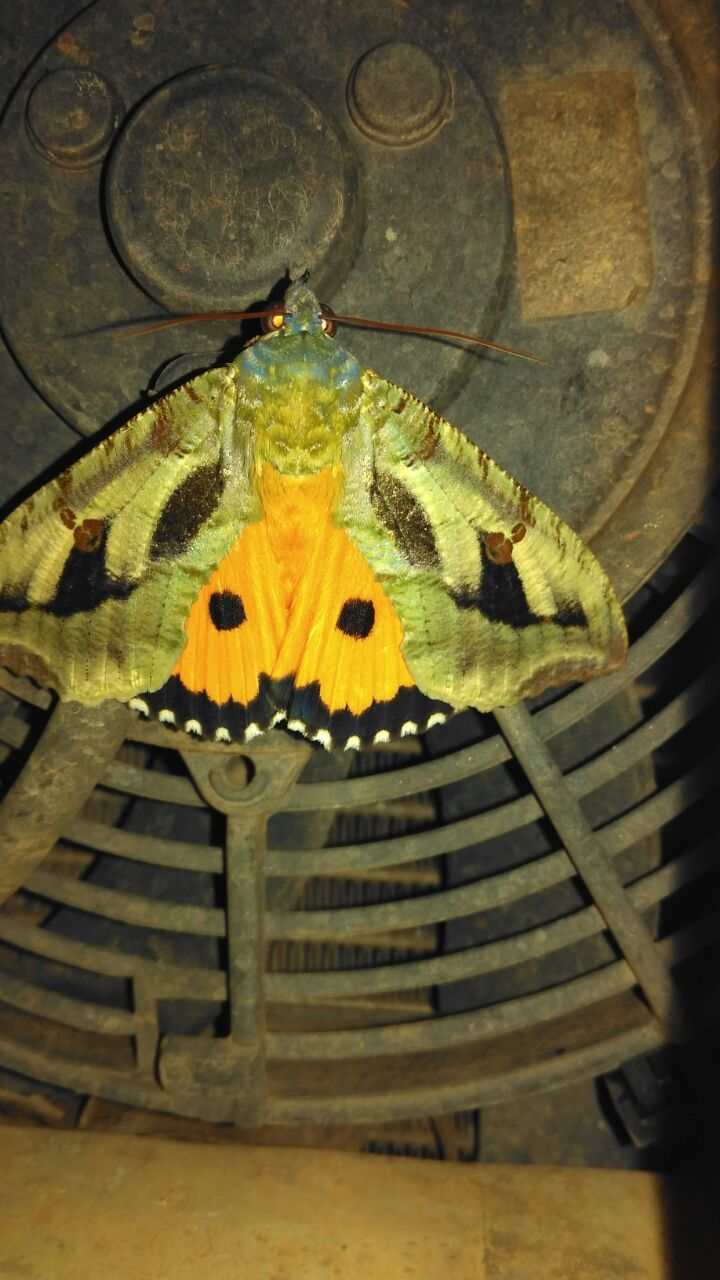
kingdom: Animalia
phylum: Arthropoda
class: Insecta
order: Lepidoptera
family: Erebidae
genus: Eudocima
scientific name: Eudocima materna
